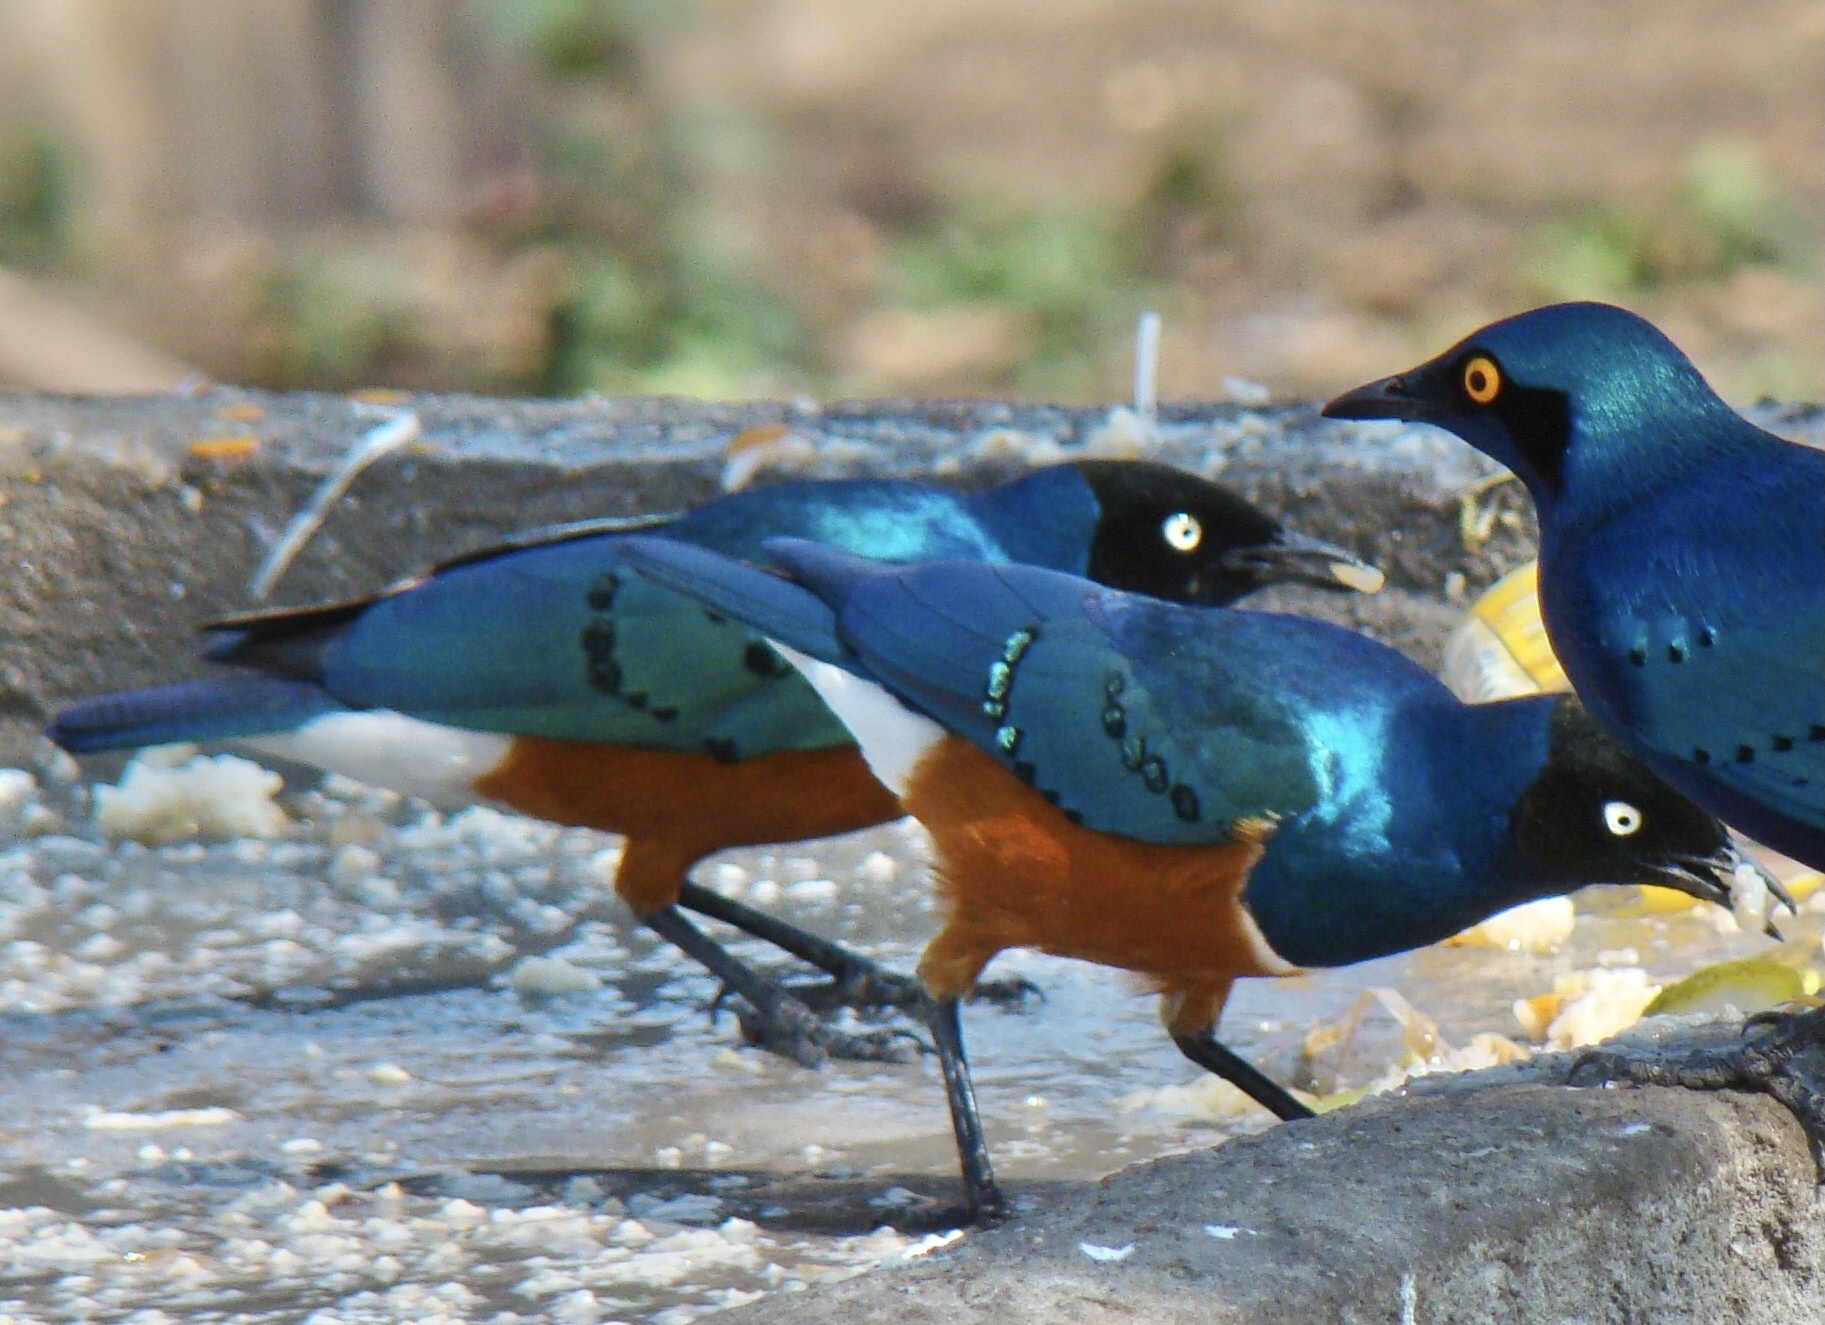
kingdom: Animalia
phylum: Chordata
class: Aves
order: Passeriformes
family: Sturnidae
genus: Lamprotornis
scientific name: Lamprotornis superbus
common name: Superb starling
